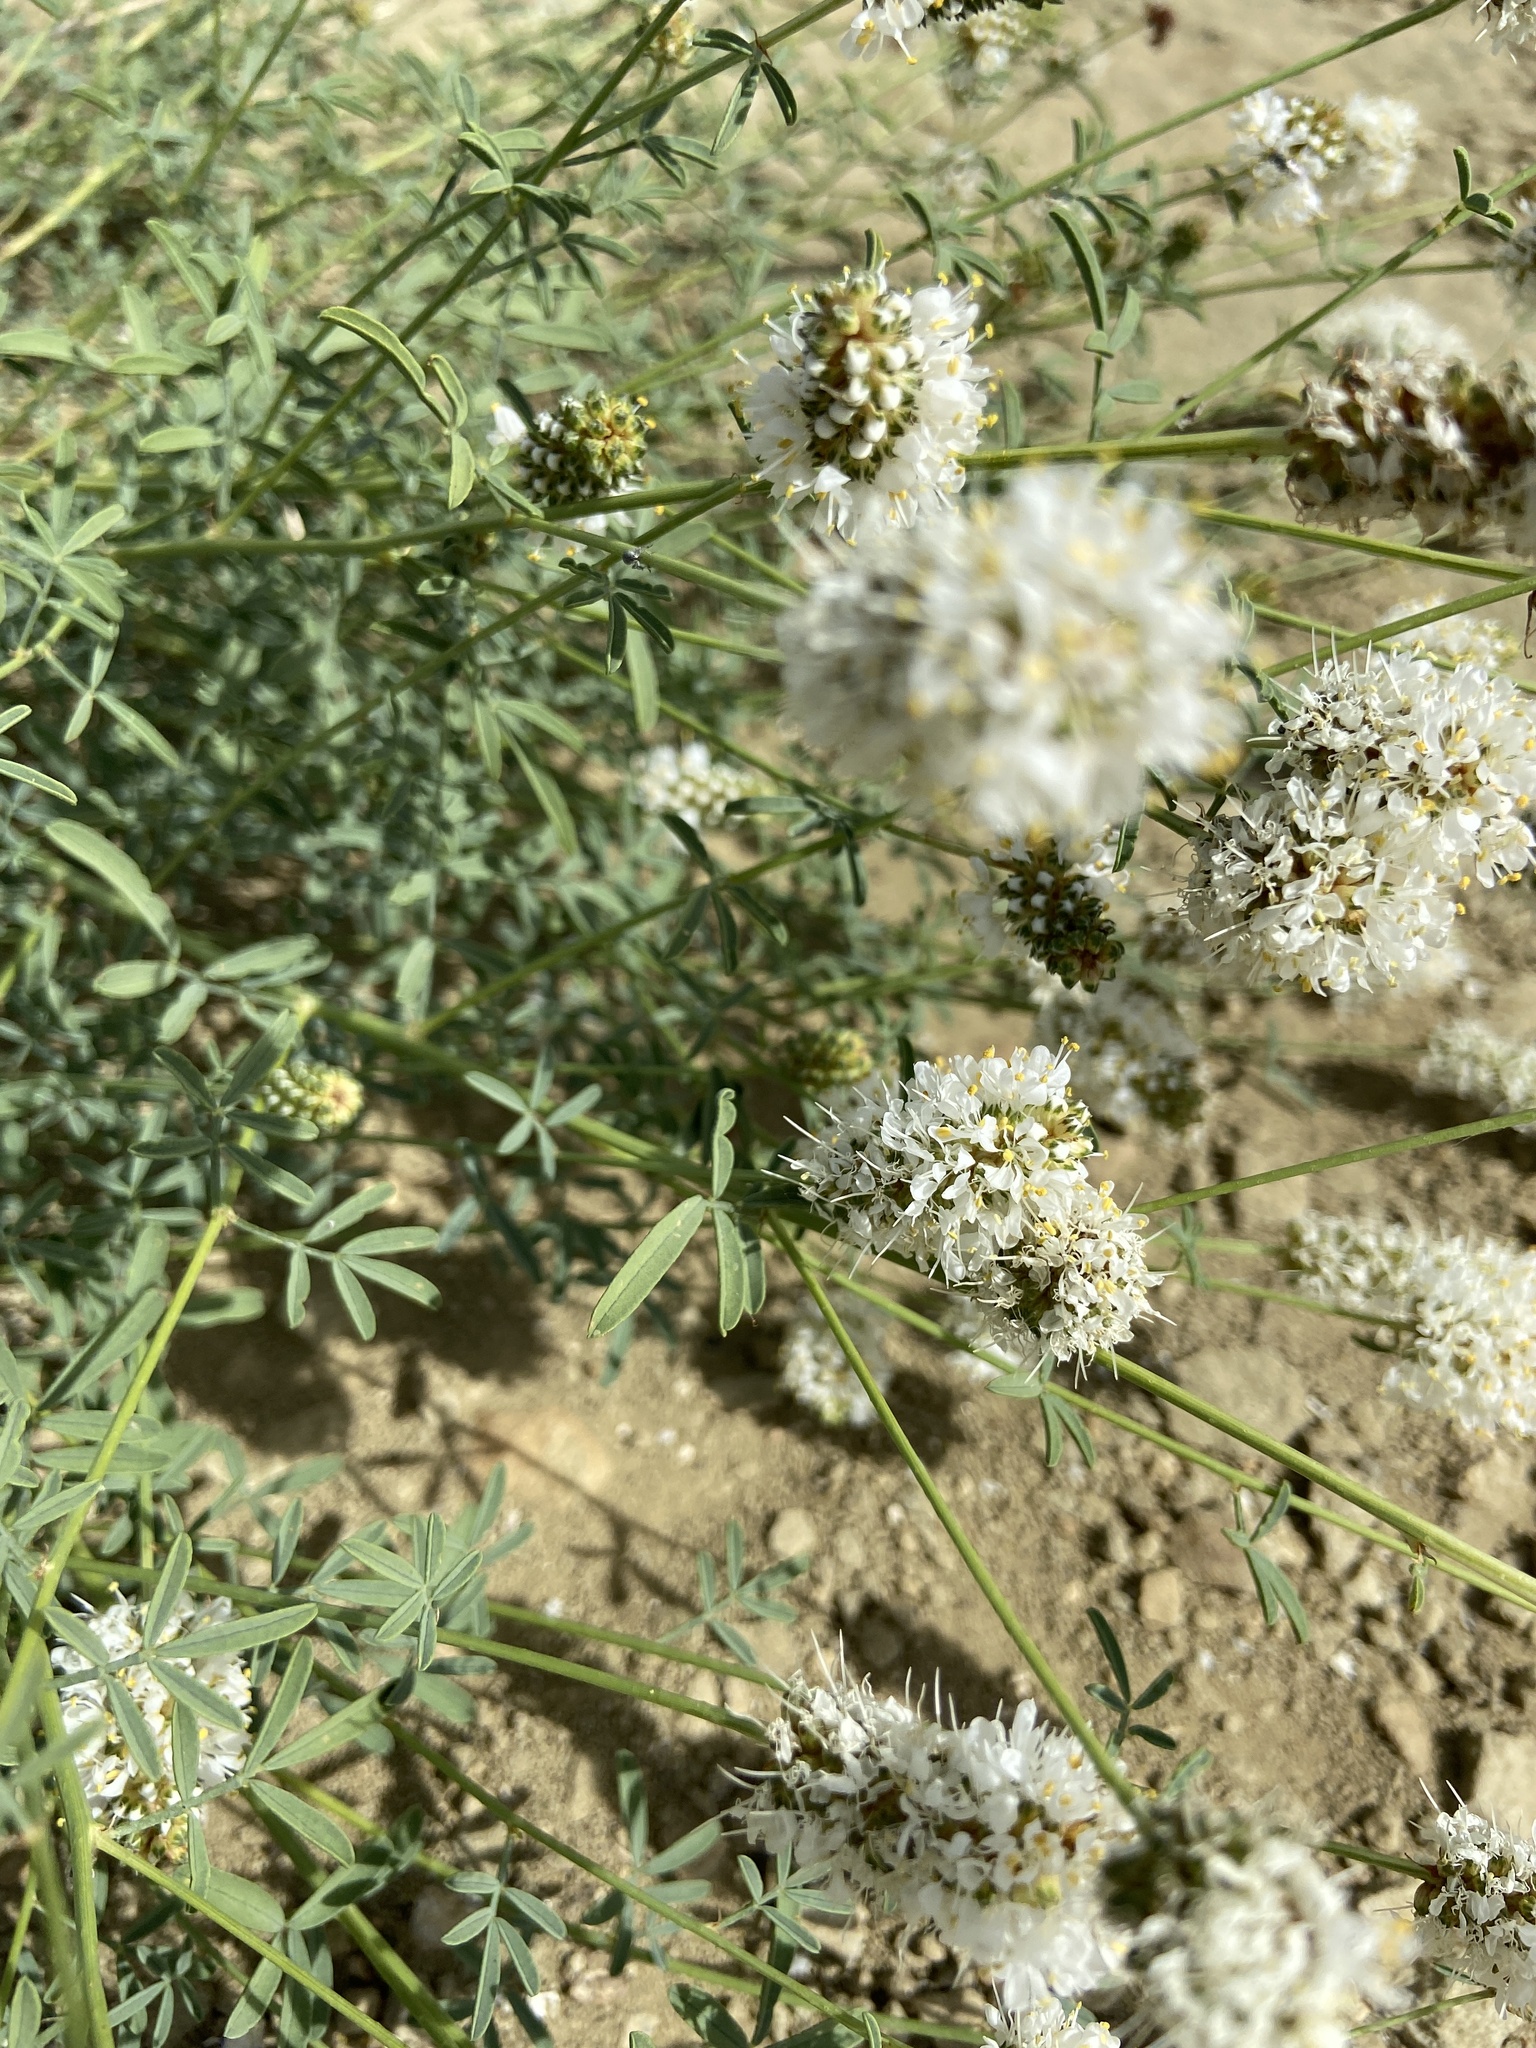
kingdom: Plantae
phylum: Tracheophyta
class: Magnoliopsida
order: Fabales
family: Fabaceae
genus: Dalea
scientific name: Dalea candida
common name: White prairie-clover
